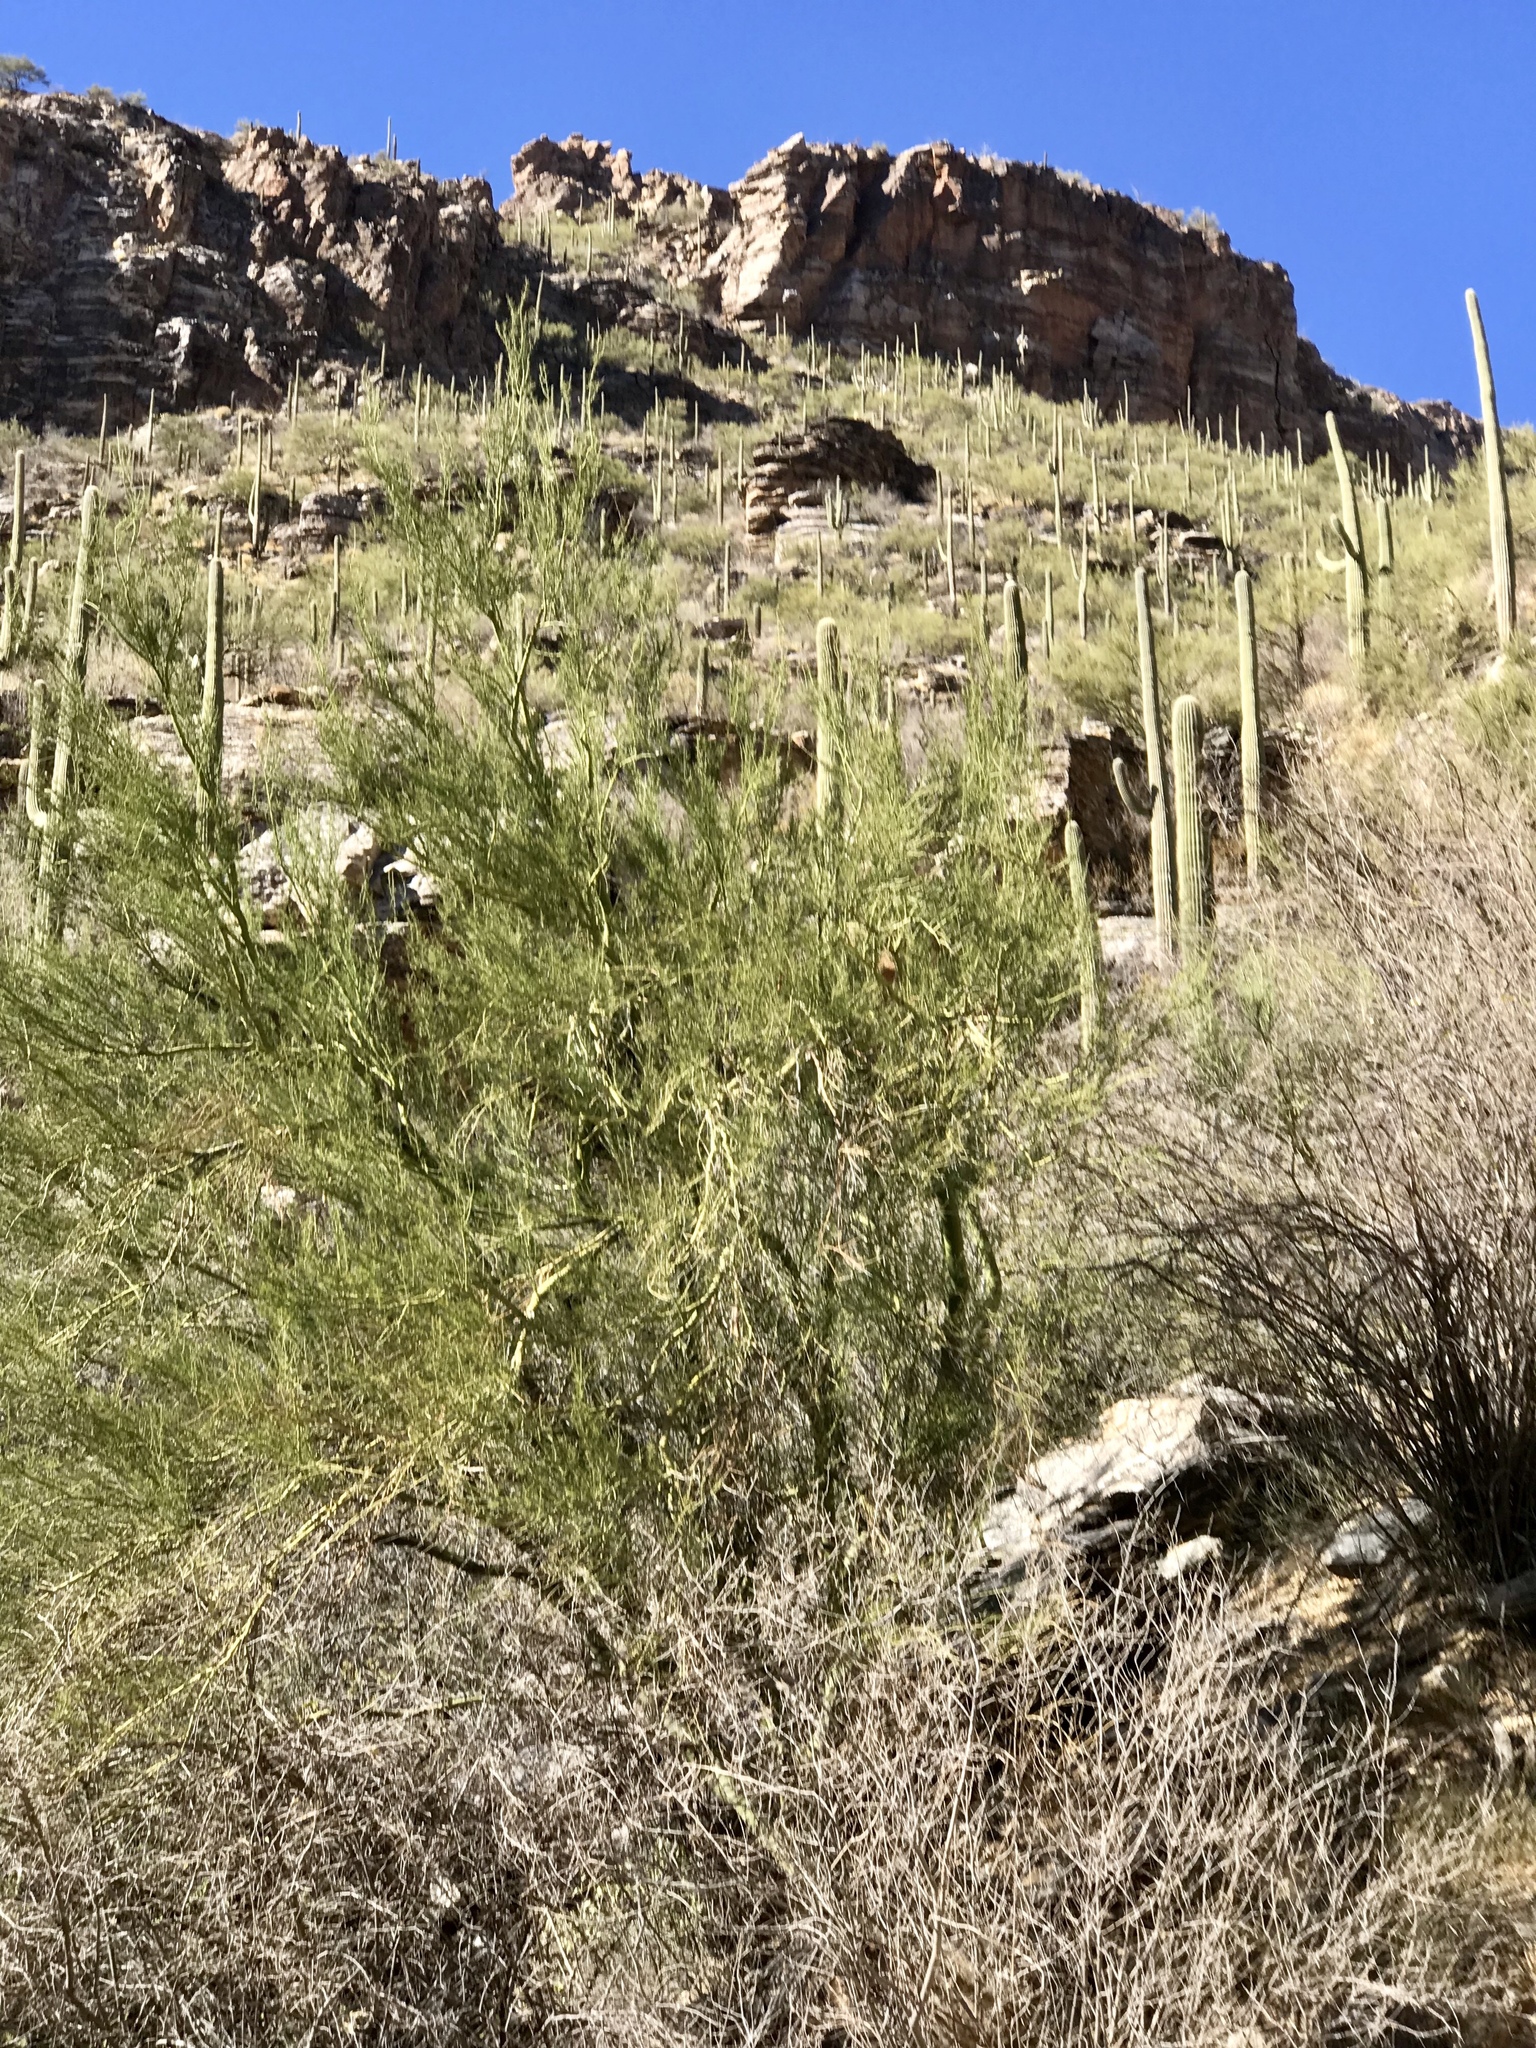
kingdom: Plantae
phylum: Tracheophyta
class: Magnoliopsida
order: Fabales
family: Fabaceae
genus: Parkinsonia
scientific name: Parkinsonia microphylla
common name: Yellow paloverde
